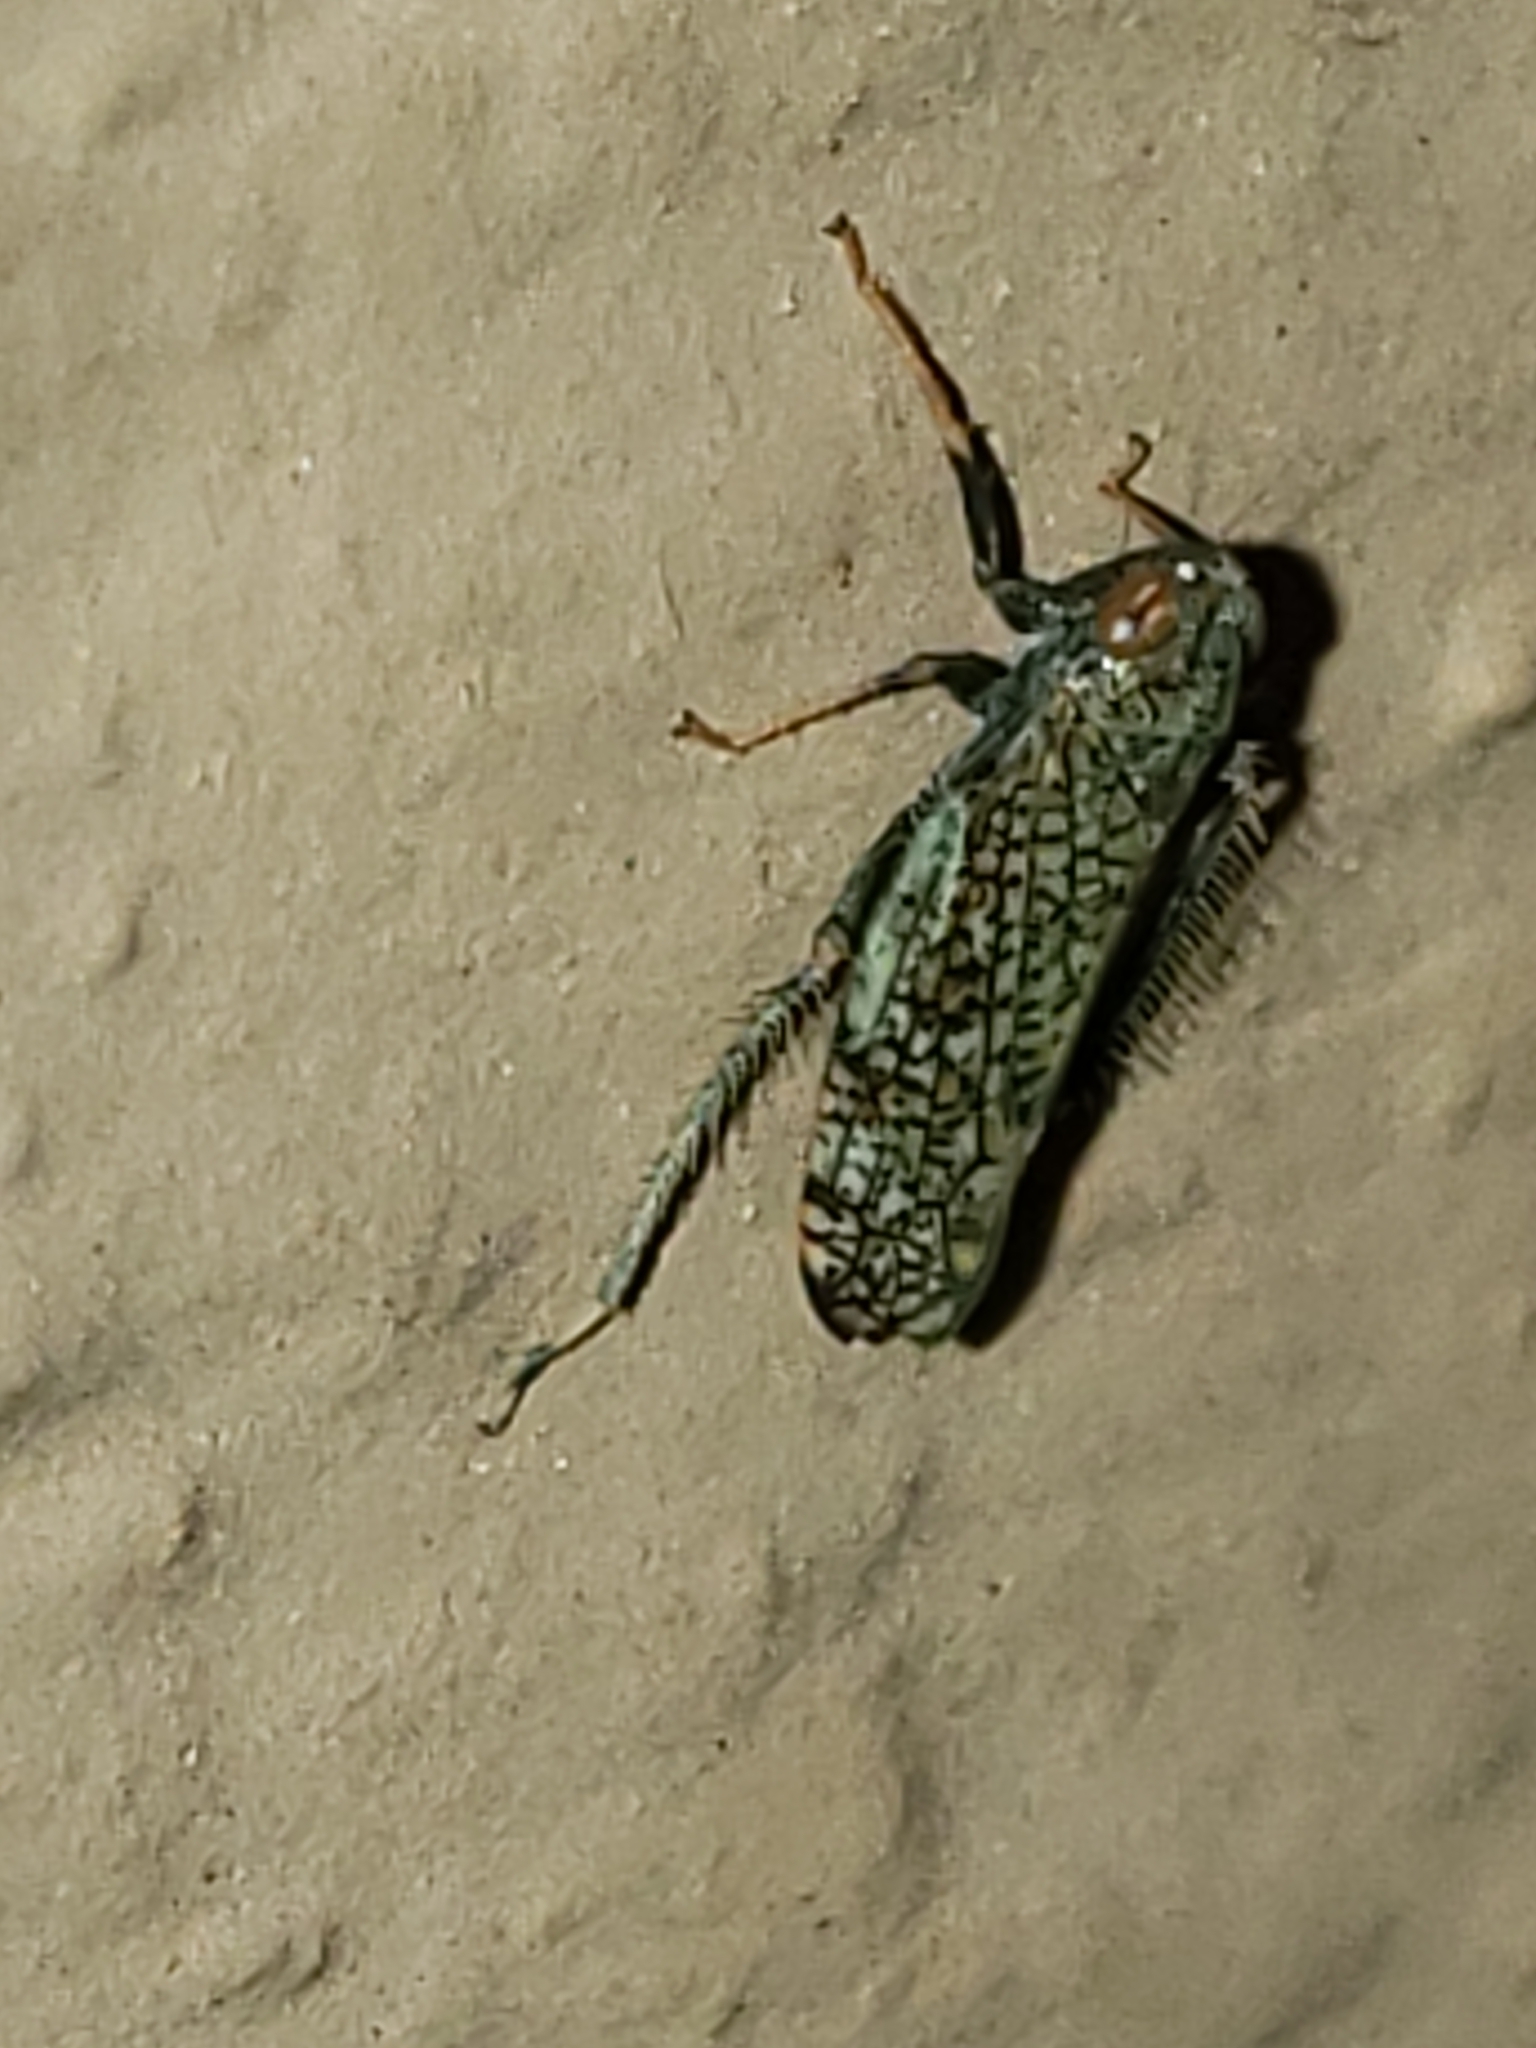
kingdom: Animalia
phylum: Arthropoda
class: Insecta
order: Hemiptera
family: Cicadellidae
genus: Orientus
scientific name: Orientus ishidae
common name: Japanese leafhopper
